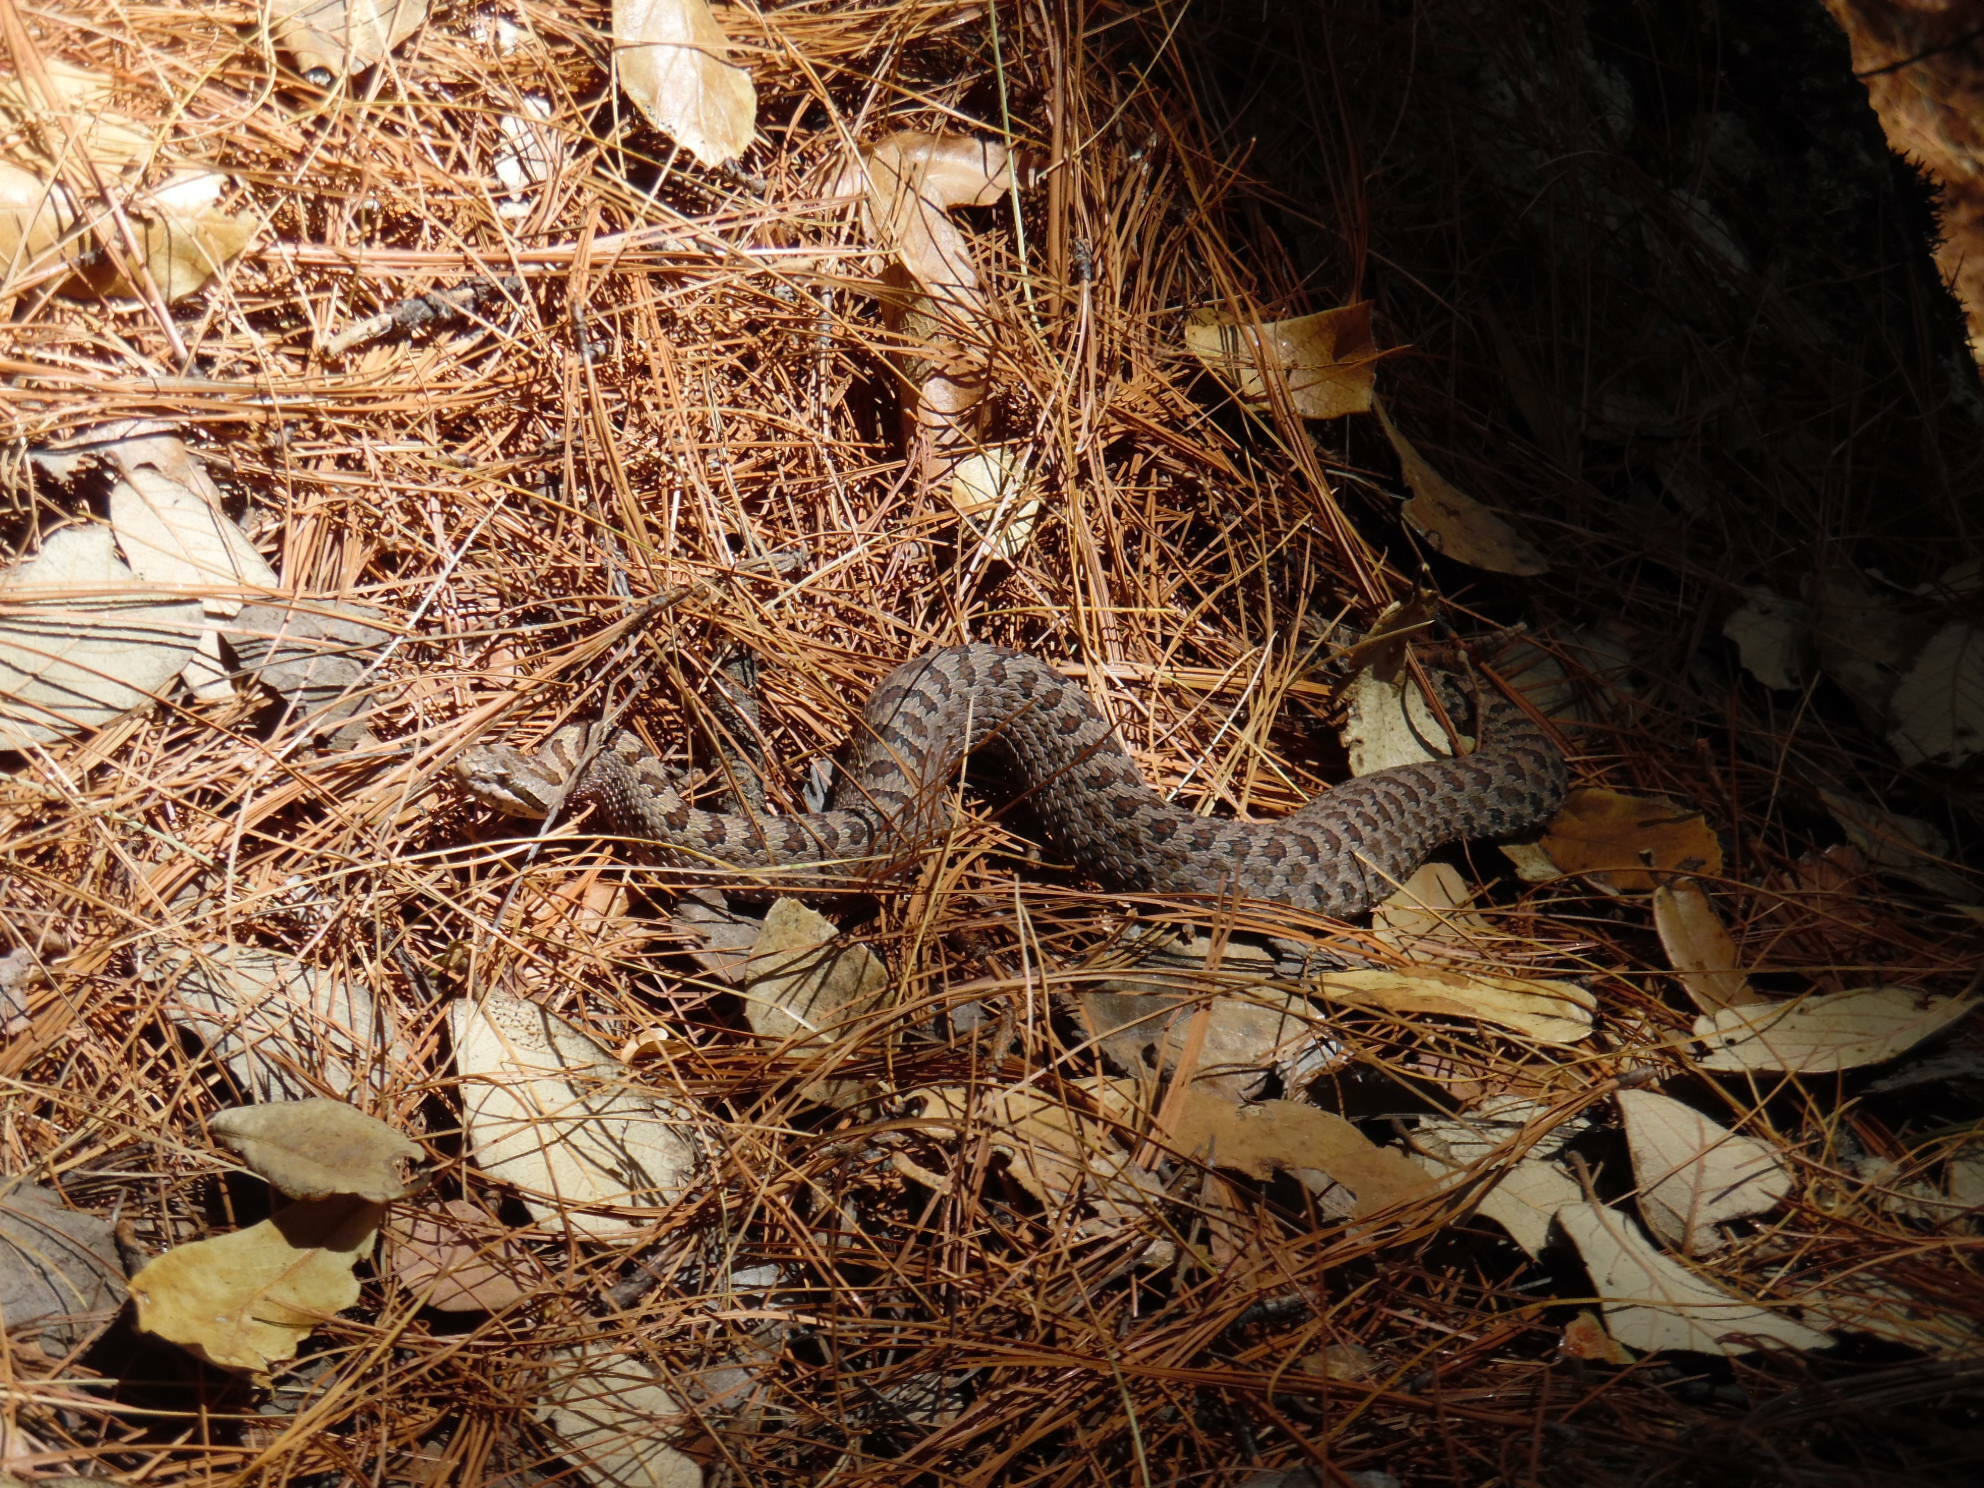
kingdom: Animalia
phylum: Chordata
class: Squamata
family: Viperidae
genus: Crotalus
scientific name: Crotalus pricei
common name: Twin-spotted rattlesnake
